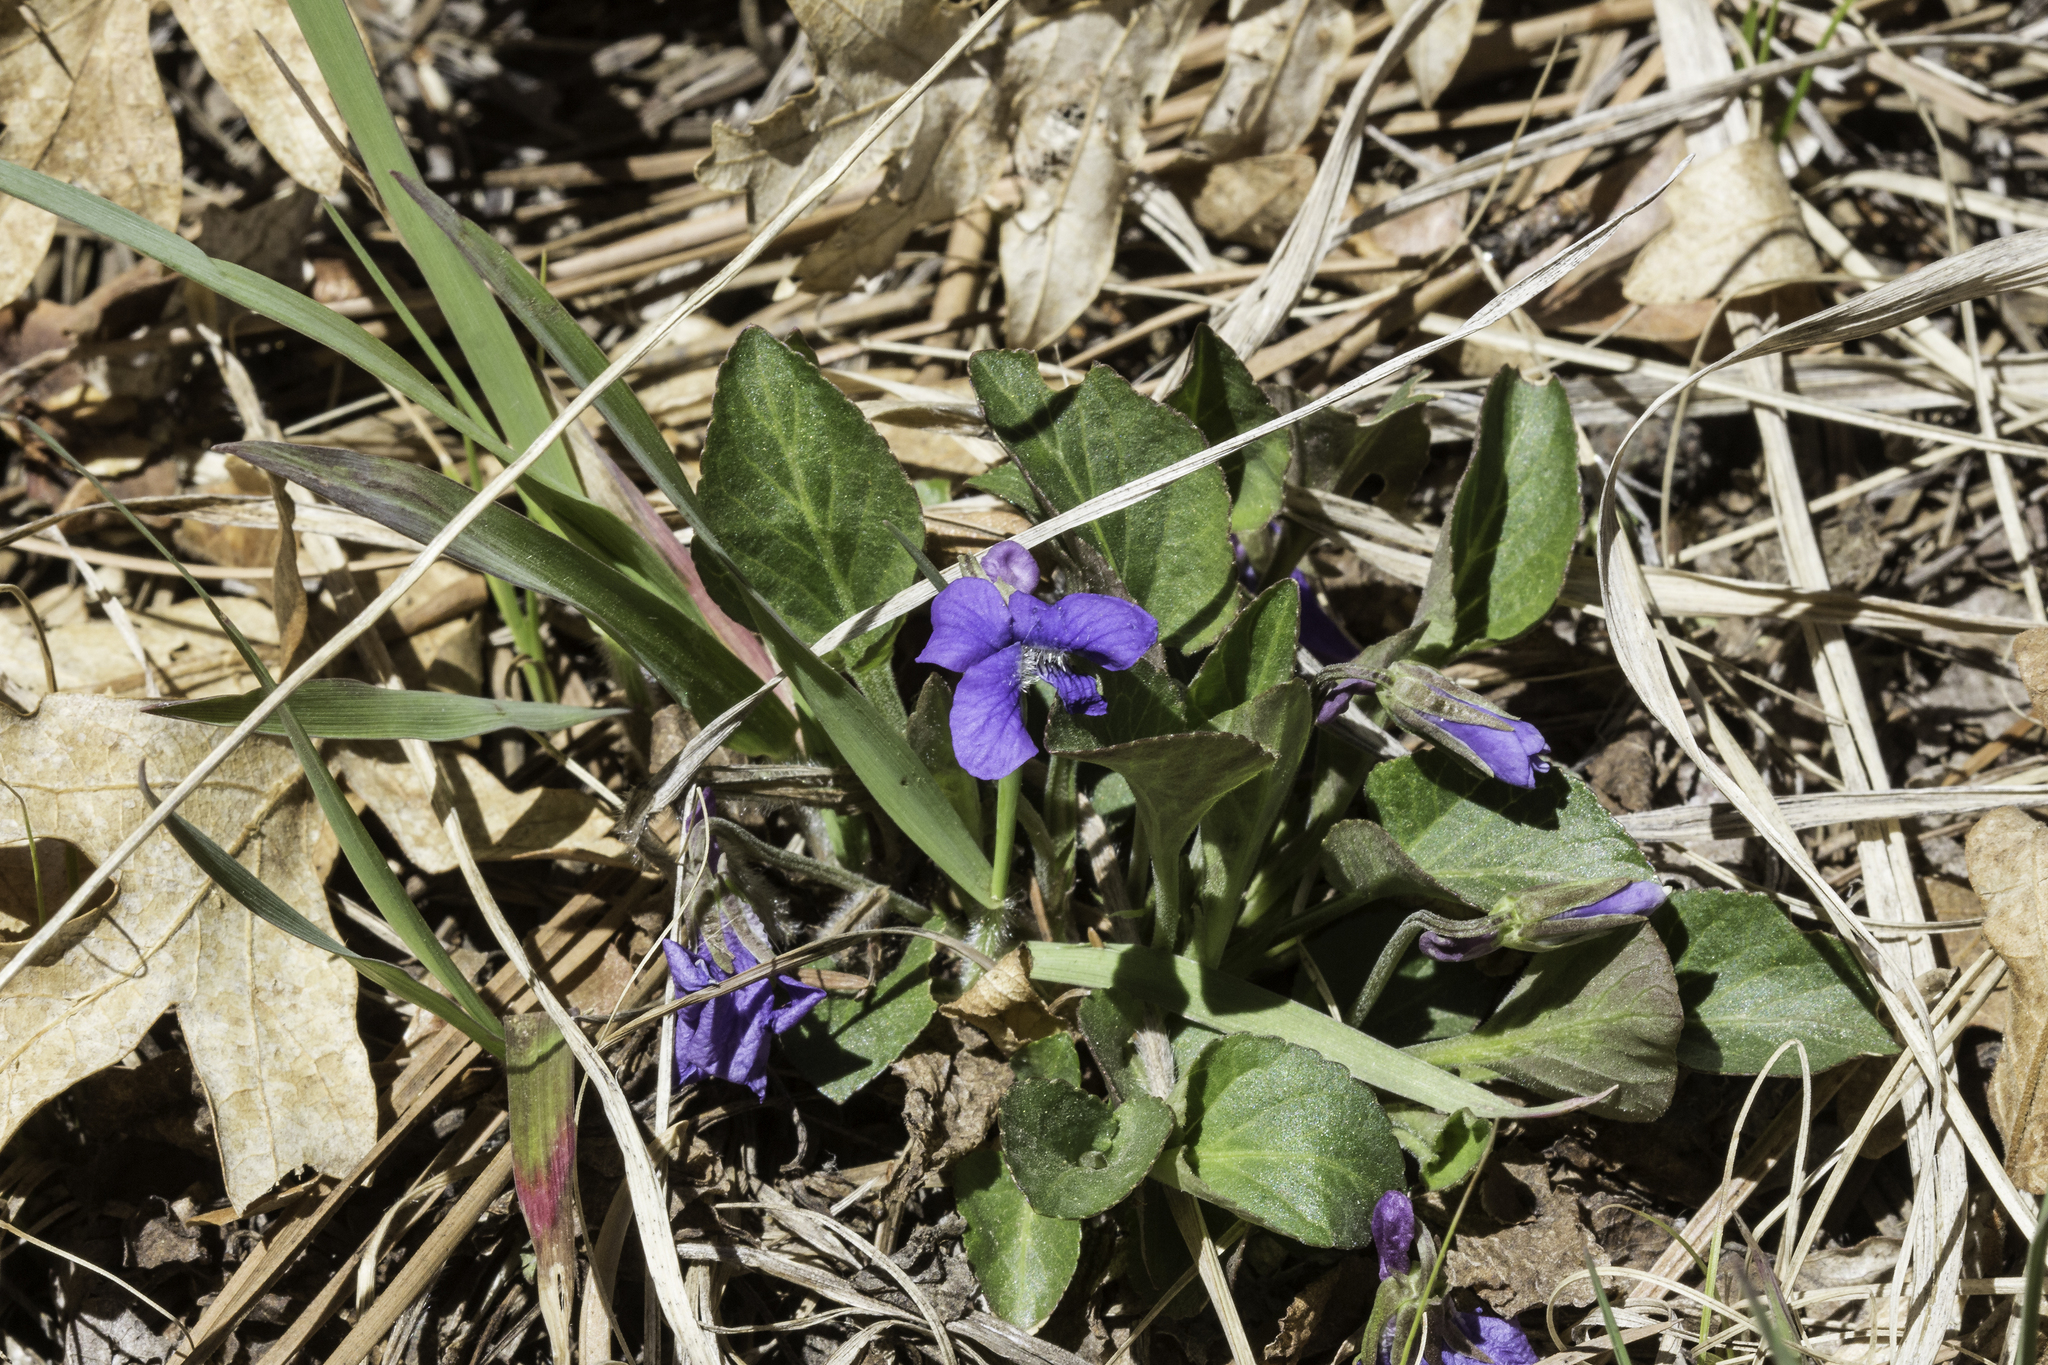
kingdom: Plantae
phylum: Tracheophyta
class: Magnoliopsida
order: Malpighiales
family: Violaceae
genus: Viola
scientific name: Viola adunca
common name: Sand violet
